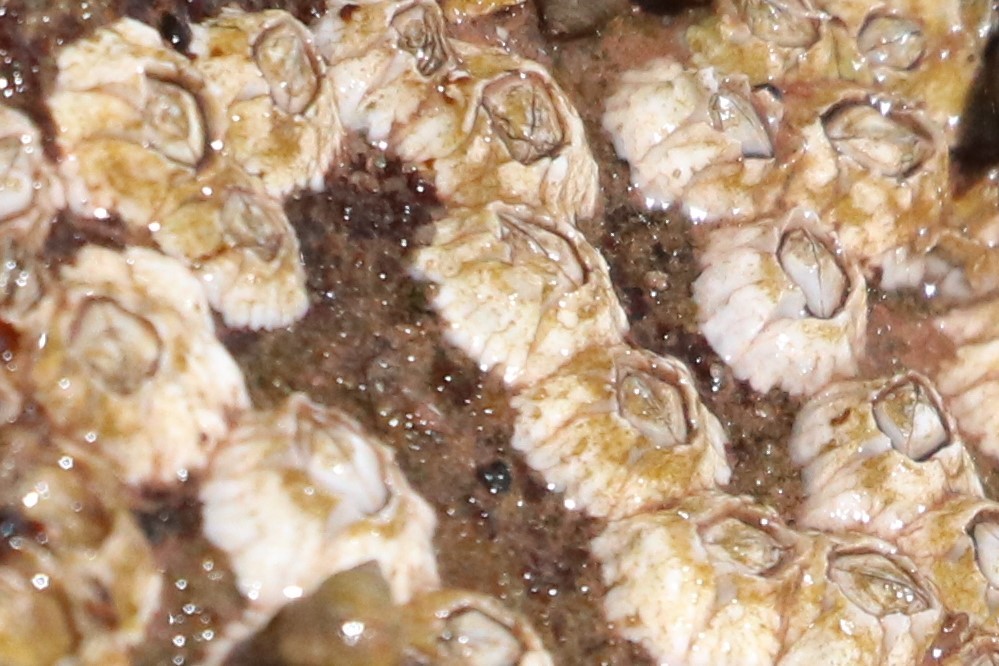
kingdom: Animalia
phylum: Arthropoda
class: Maxillopoda
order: Sessilia
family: Archaeobalanidae
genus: Semibalanus
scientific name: Semibalanus balanoides
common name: Acorn barnacle
